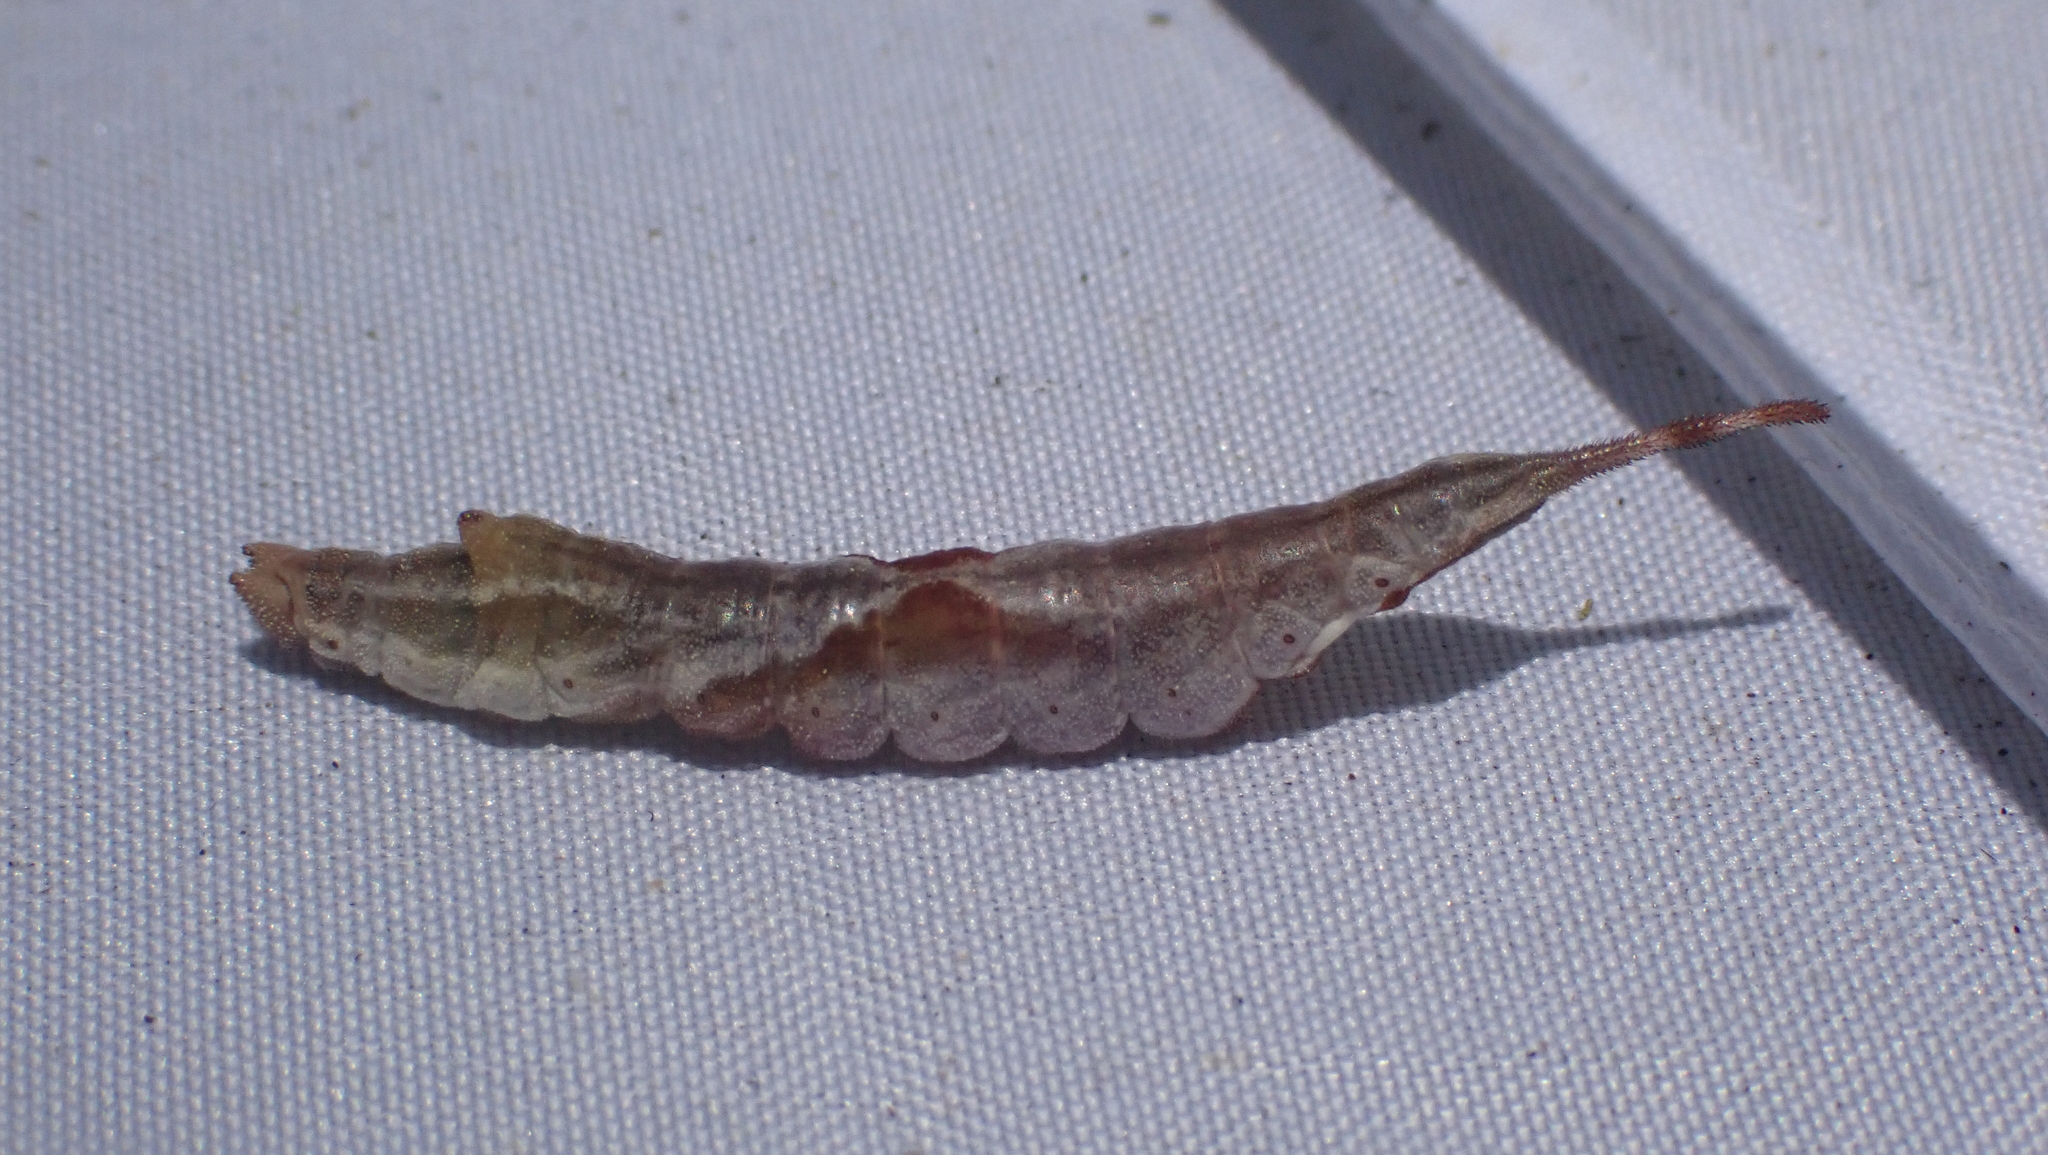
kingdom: Animalia
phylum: Arthropoda
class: Insecta
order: Lepidoptera
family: Drepanidae
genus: Oreta
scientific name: Oreta rosea
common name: Rose hooktip
